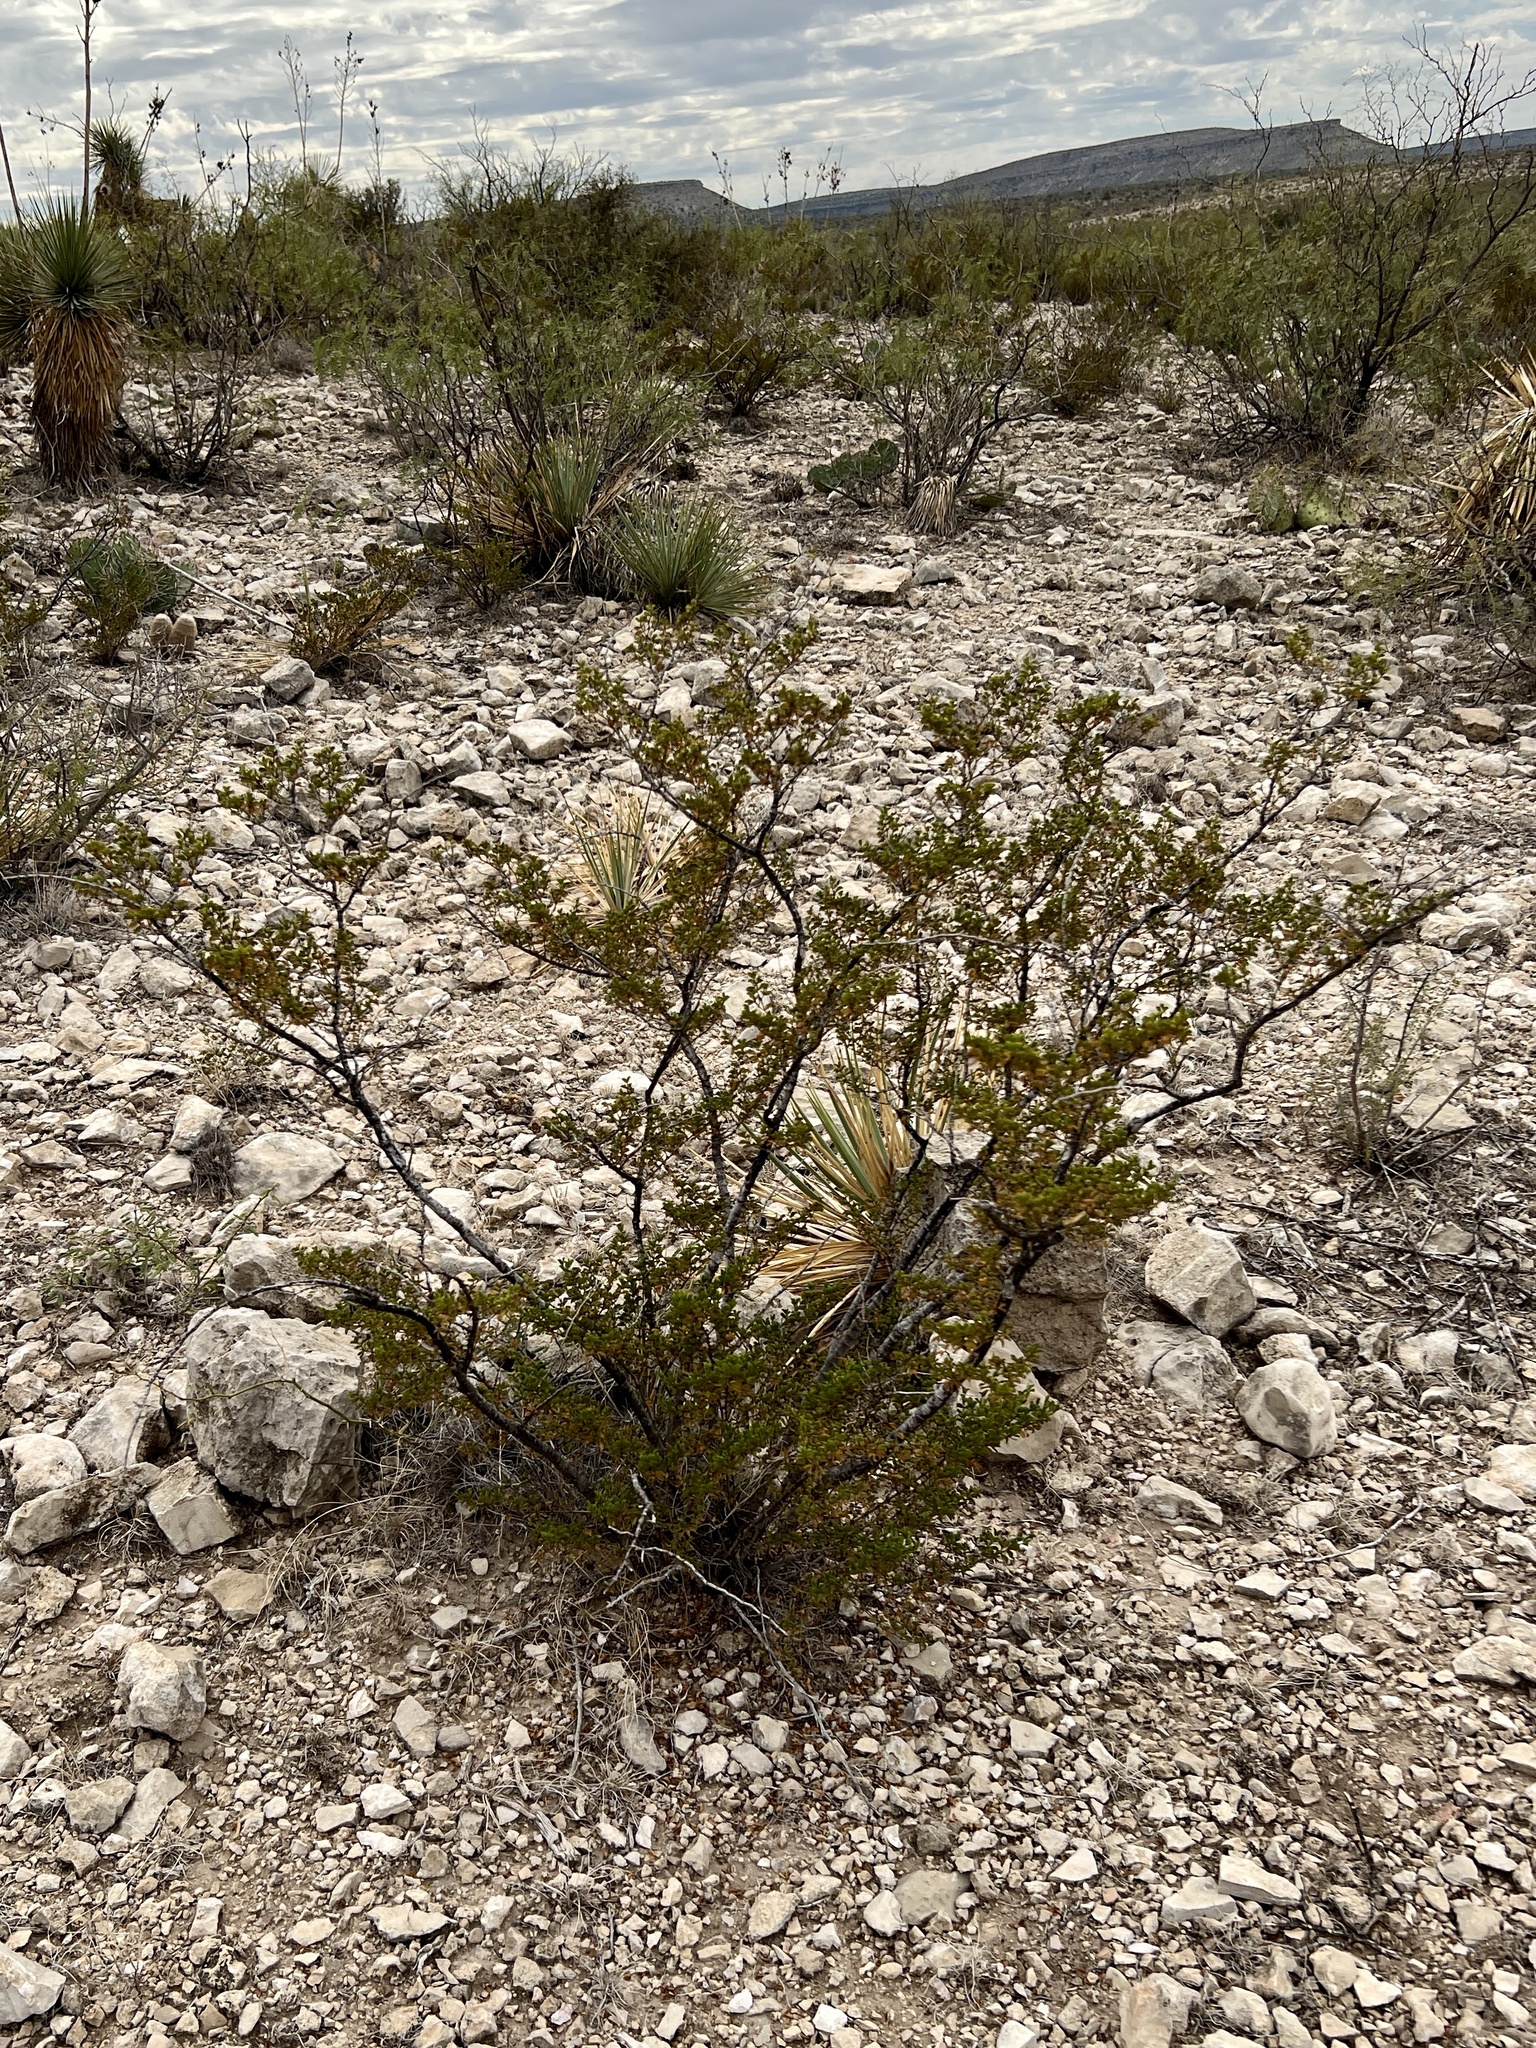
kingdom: Plantae
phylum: Tracheophyta
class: Magnoliopsida
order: Zygophyllales
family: Zygophyllaceae
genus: Larrea
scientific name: Larrea tridentata
